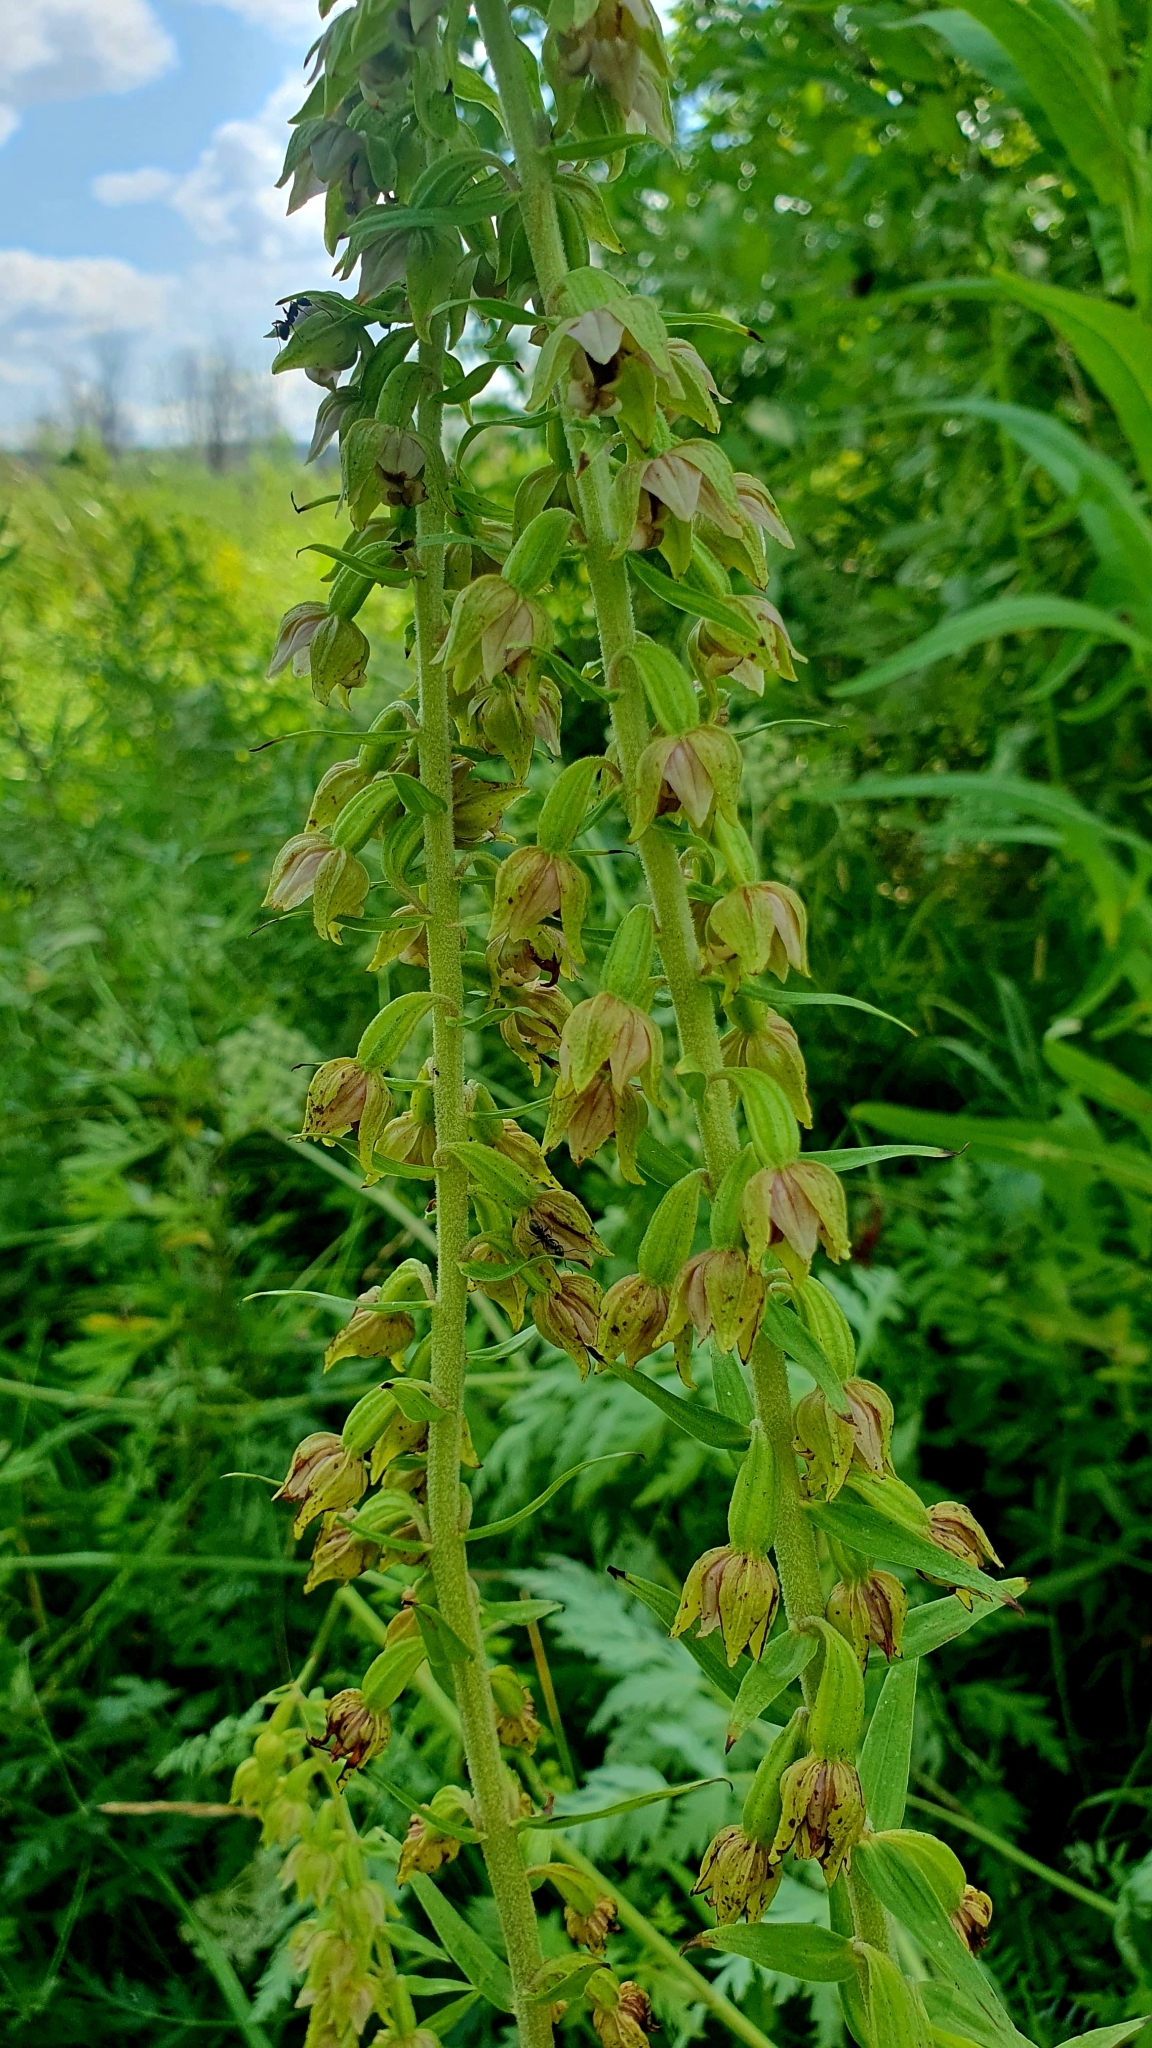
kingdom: Plantae
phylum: Tracheophyta
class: Liliopsida
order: Asparagales
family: Orchidaceae
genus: Epipactis
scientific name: Epipactis helleborine
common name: Broad-leaved helleborine
